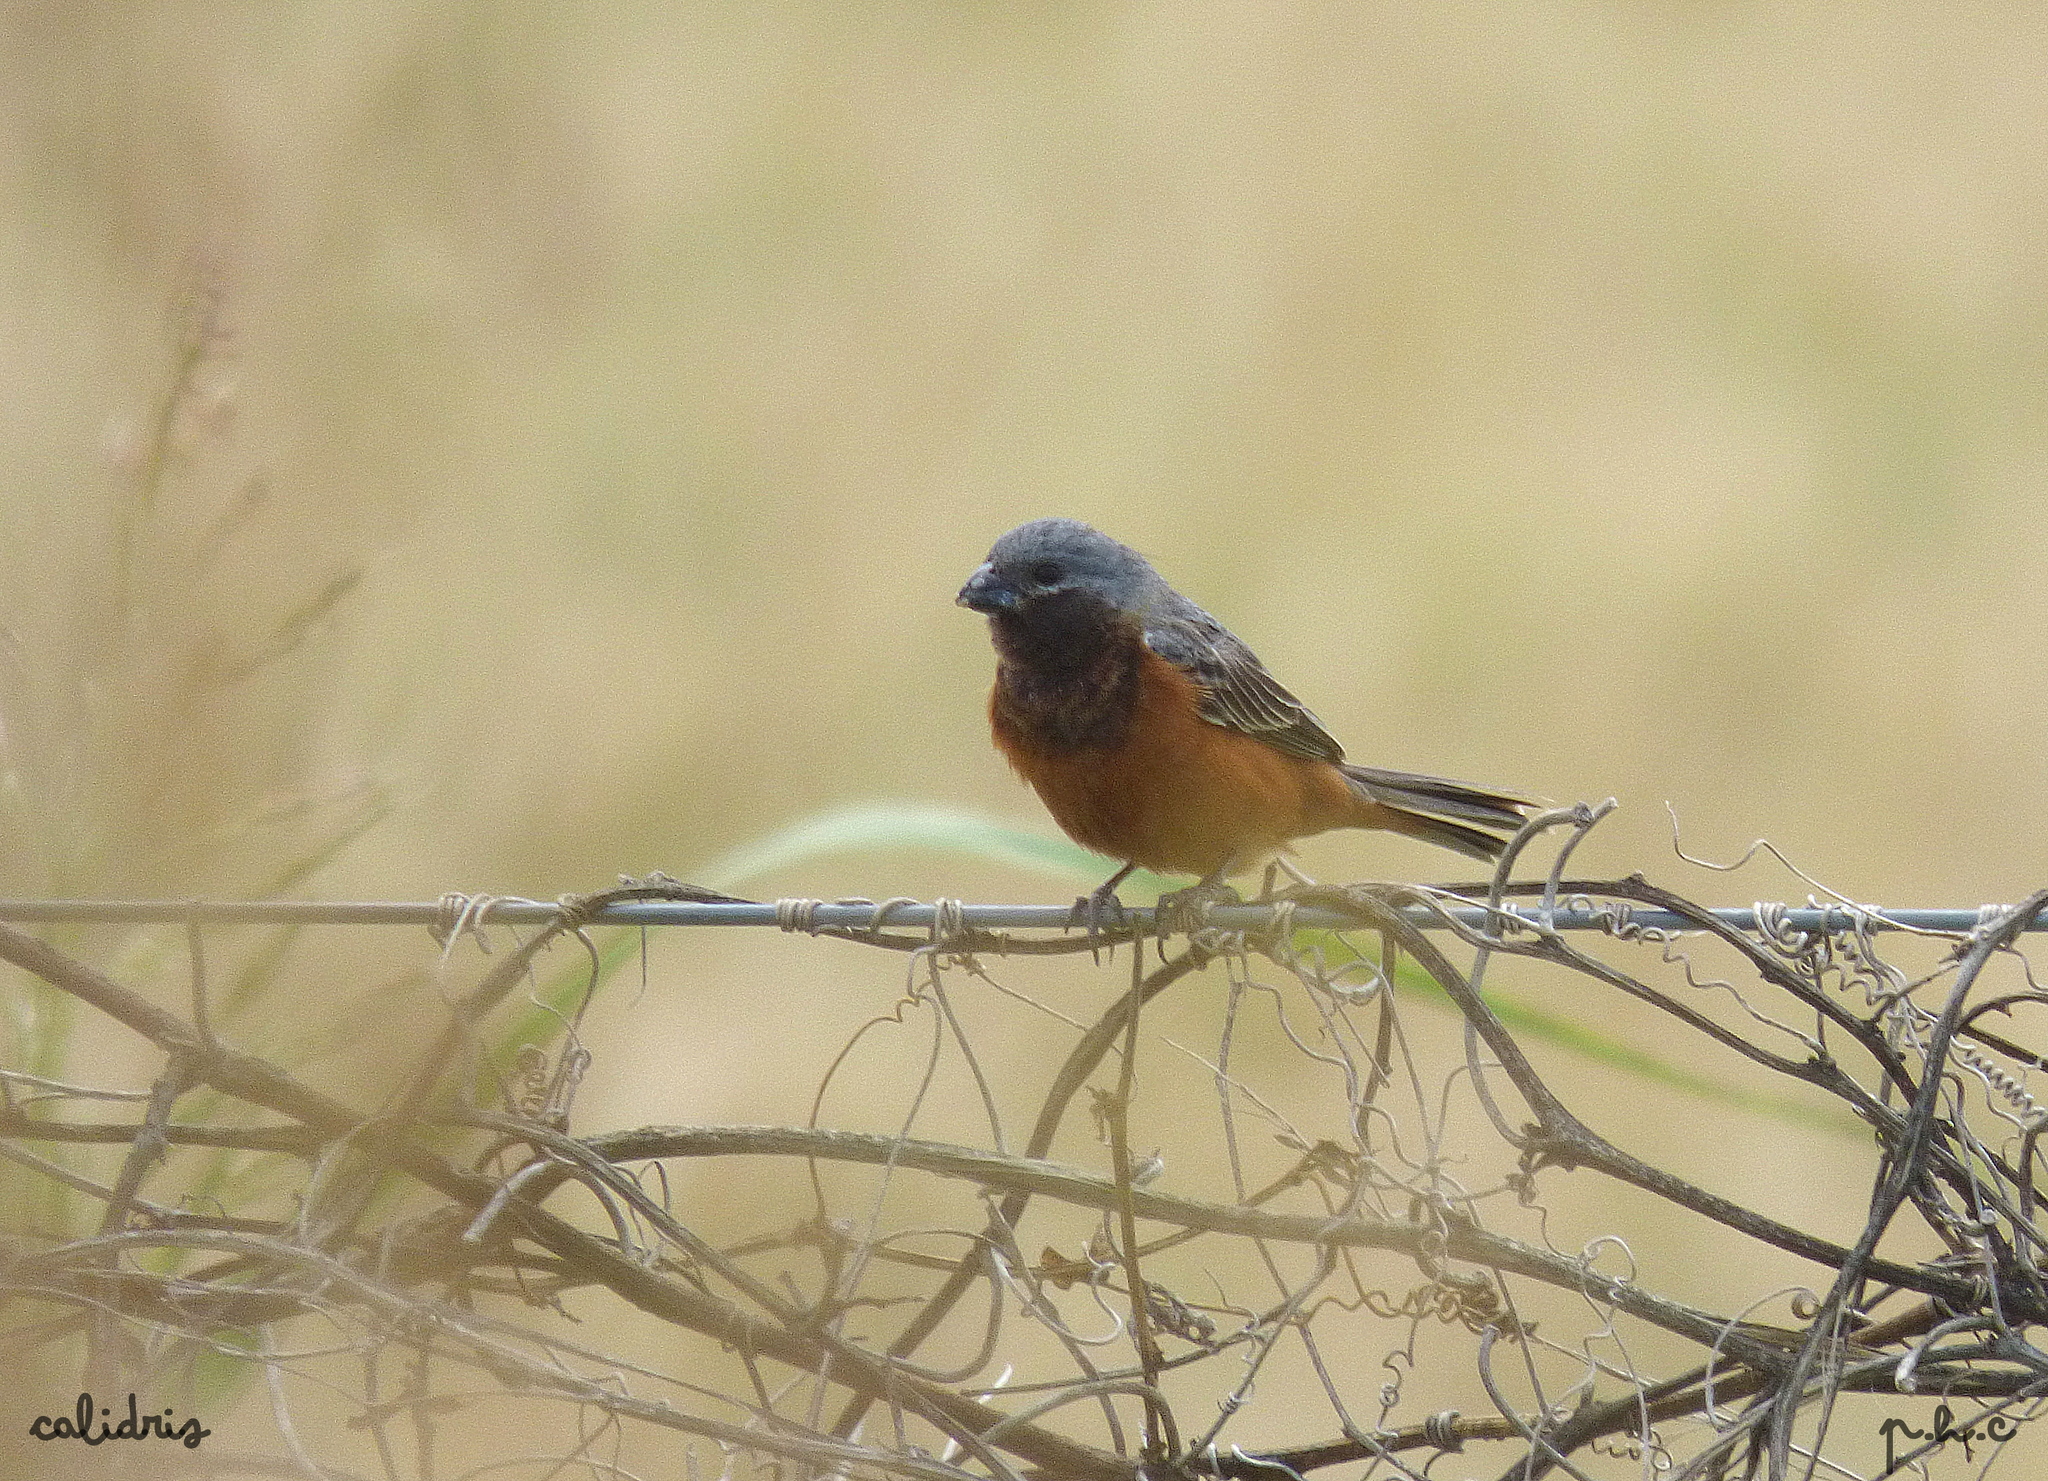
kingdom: Animalia
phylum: Chordata
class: Aves
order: Passeriformes
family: Thraupidae
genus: Sporophila
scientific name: Sporophila ruficollis
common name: Dark-throated seedeater
